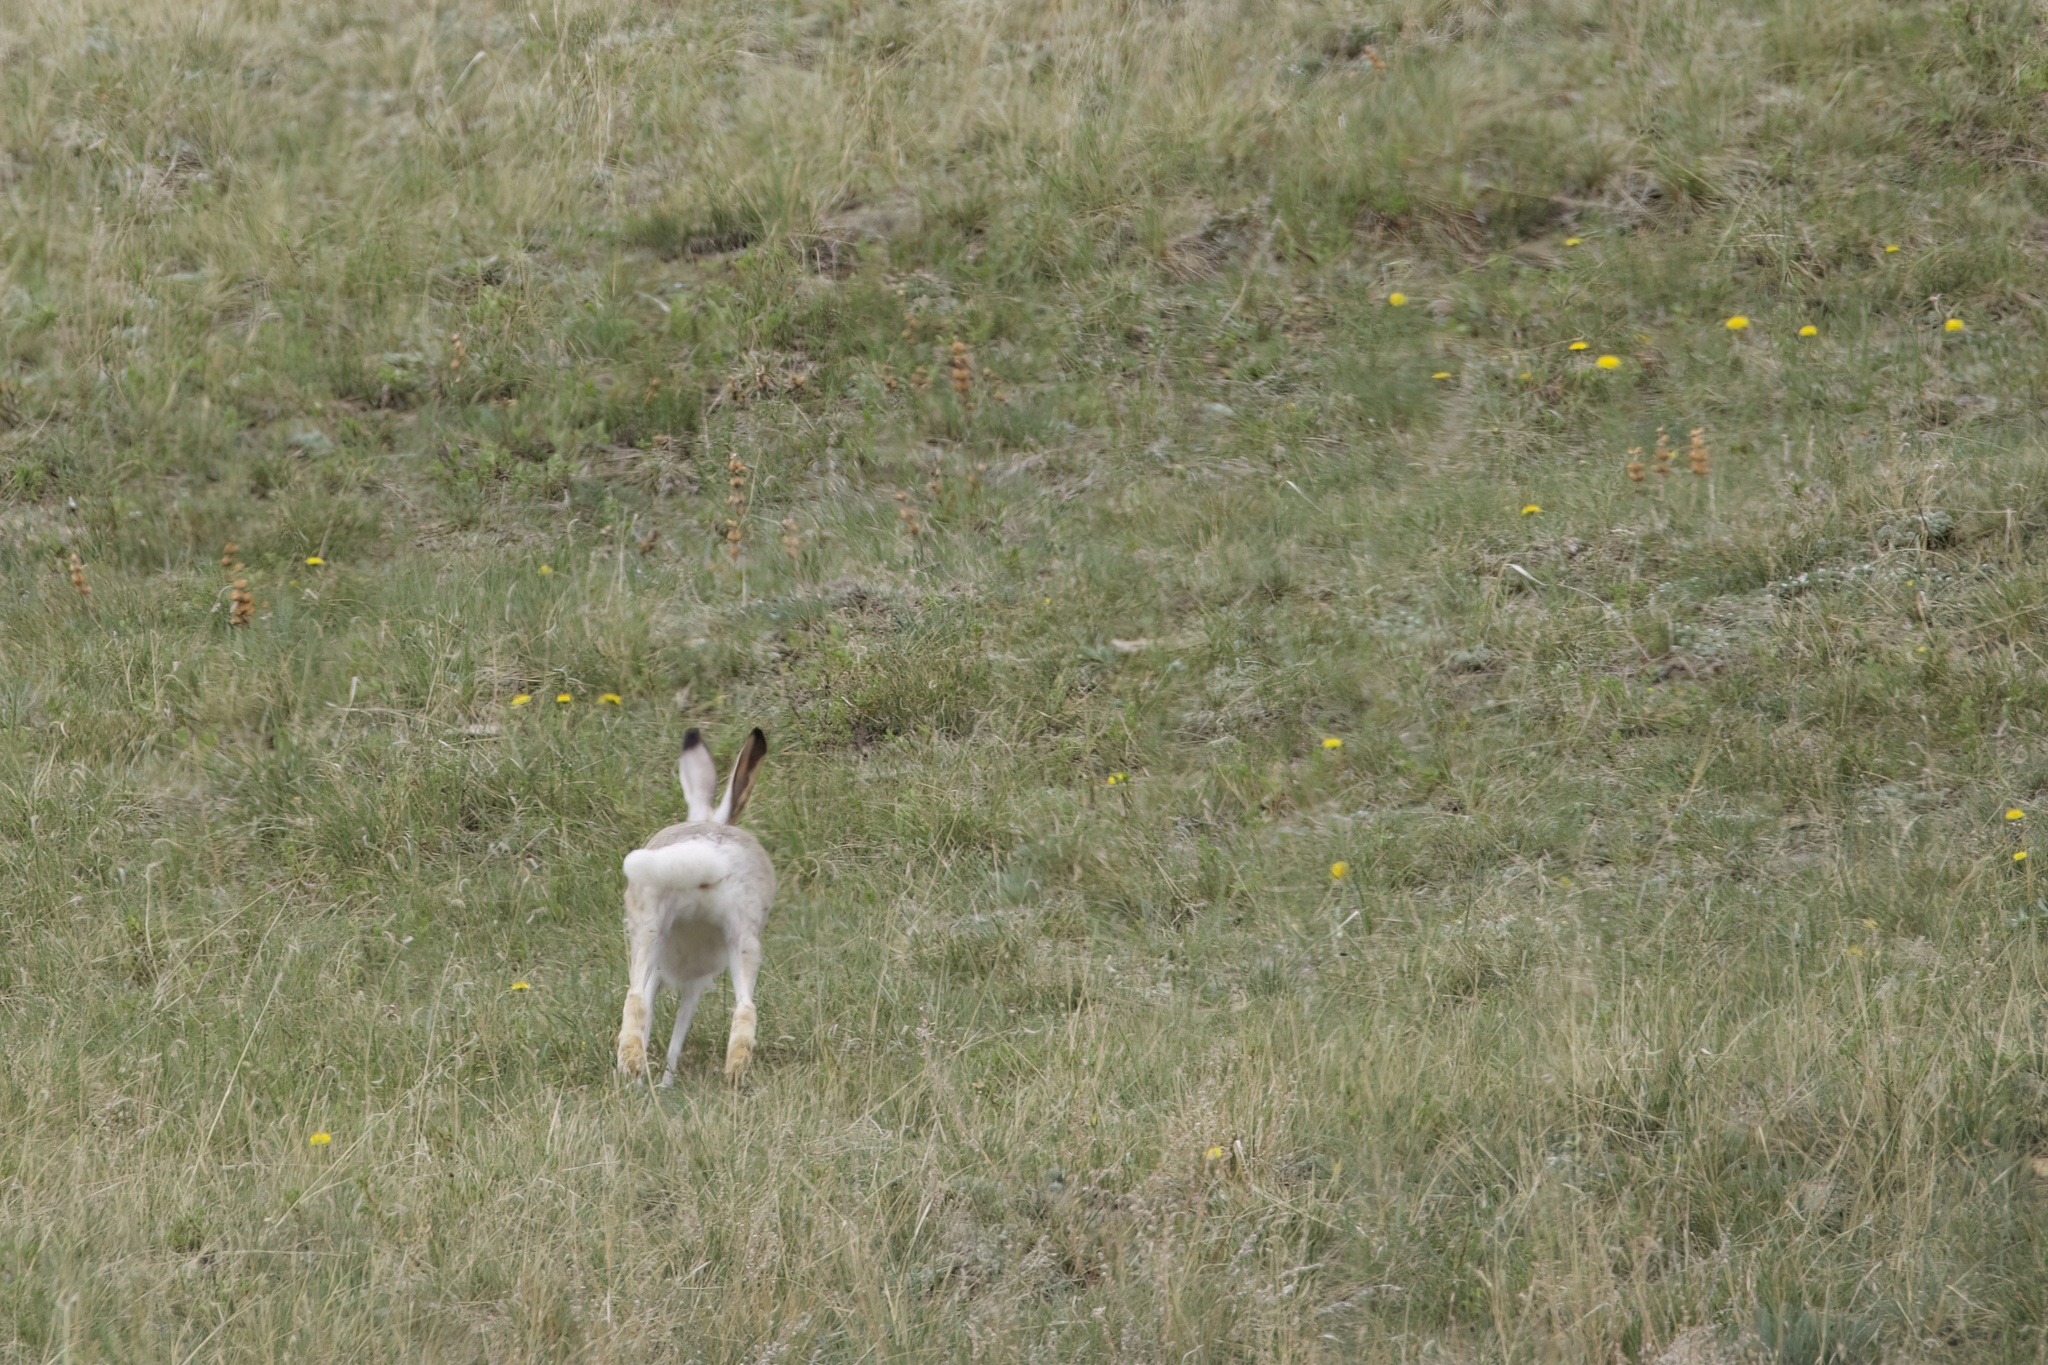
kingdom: Animalia
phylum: Chordata
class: Mammalia
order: Lagomorpha
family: Leporidae
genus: Lepus
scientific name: Lepus townsendii
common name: White-tailed jackrabbit
